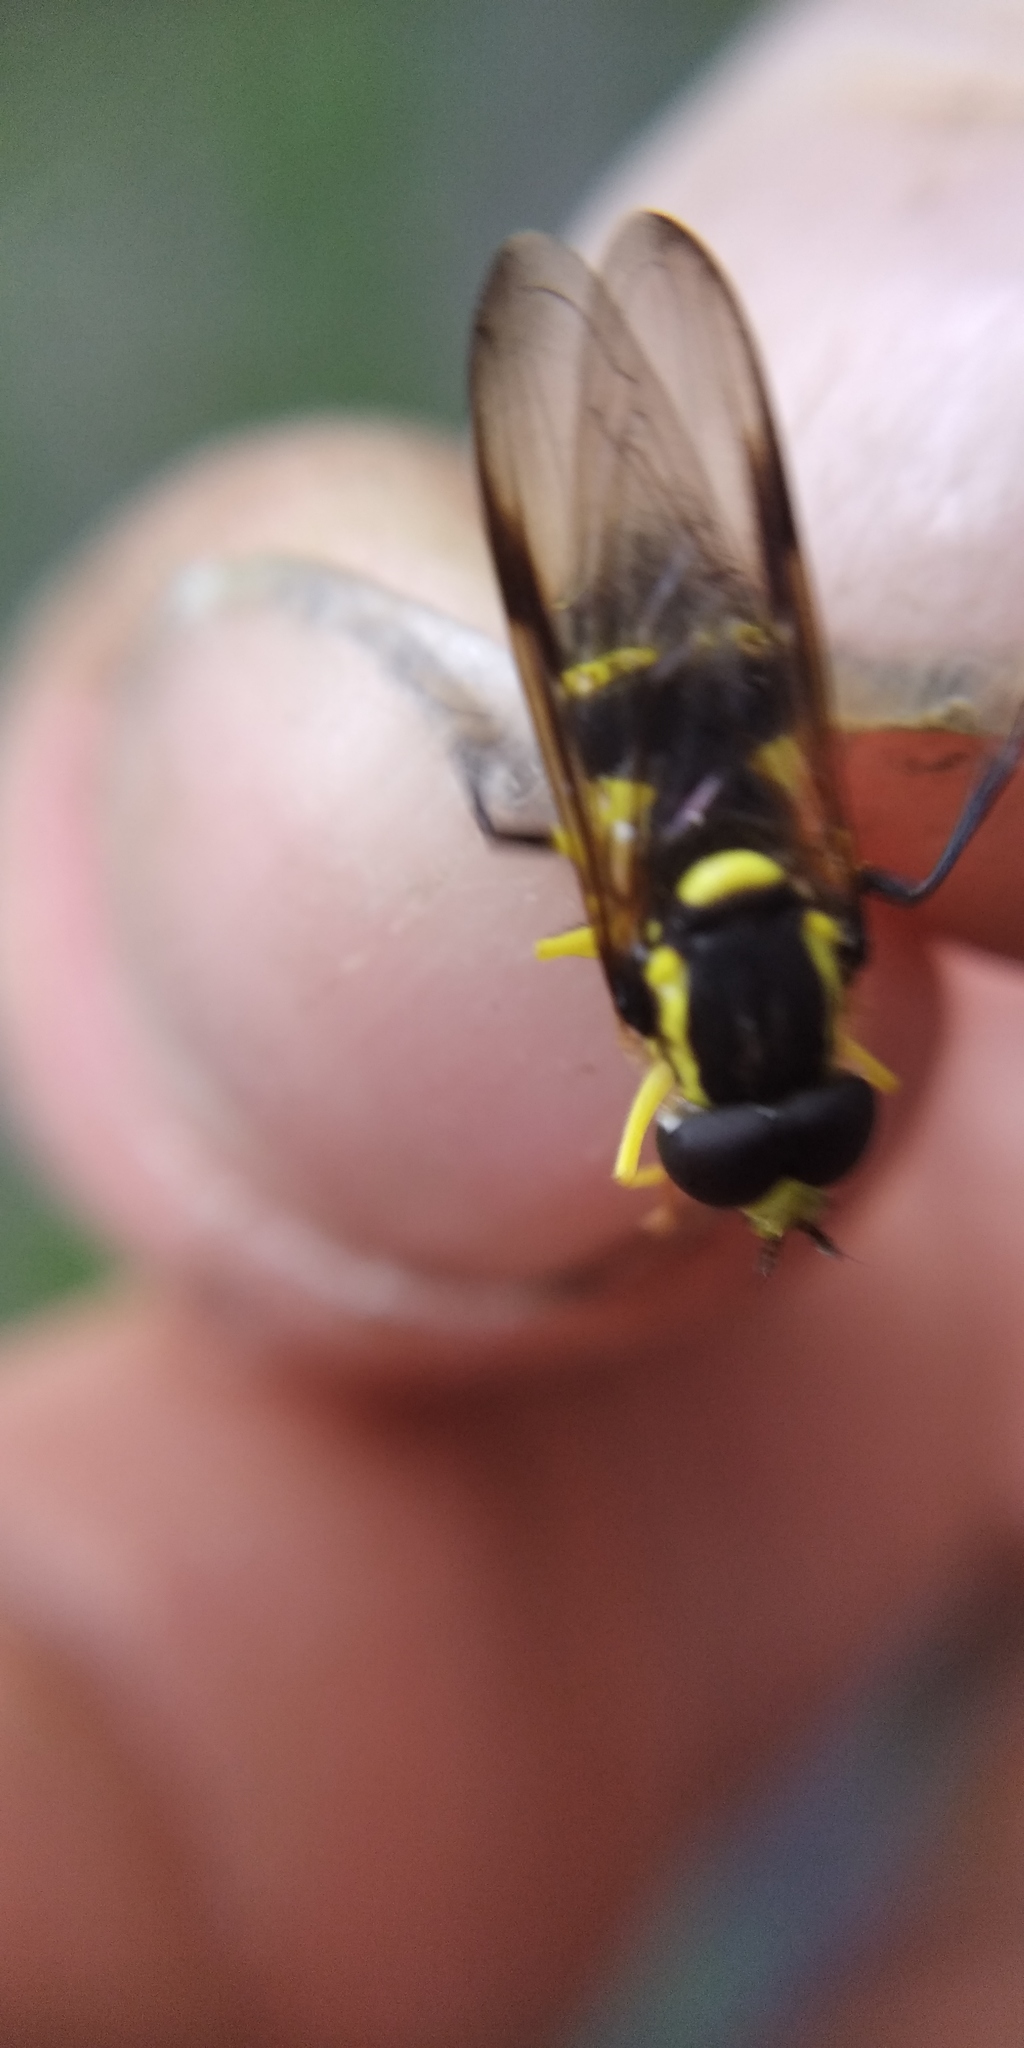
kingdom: Animalia
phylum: Arthropoda
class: Insecta
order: Diptera
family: Syrphidae
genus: Philhelius
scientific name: Philhelius dives
